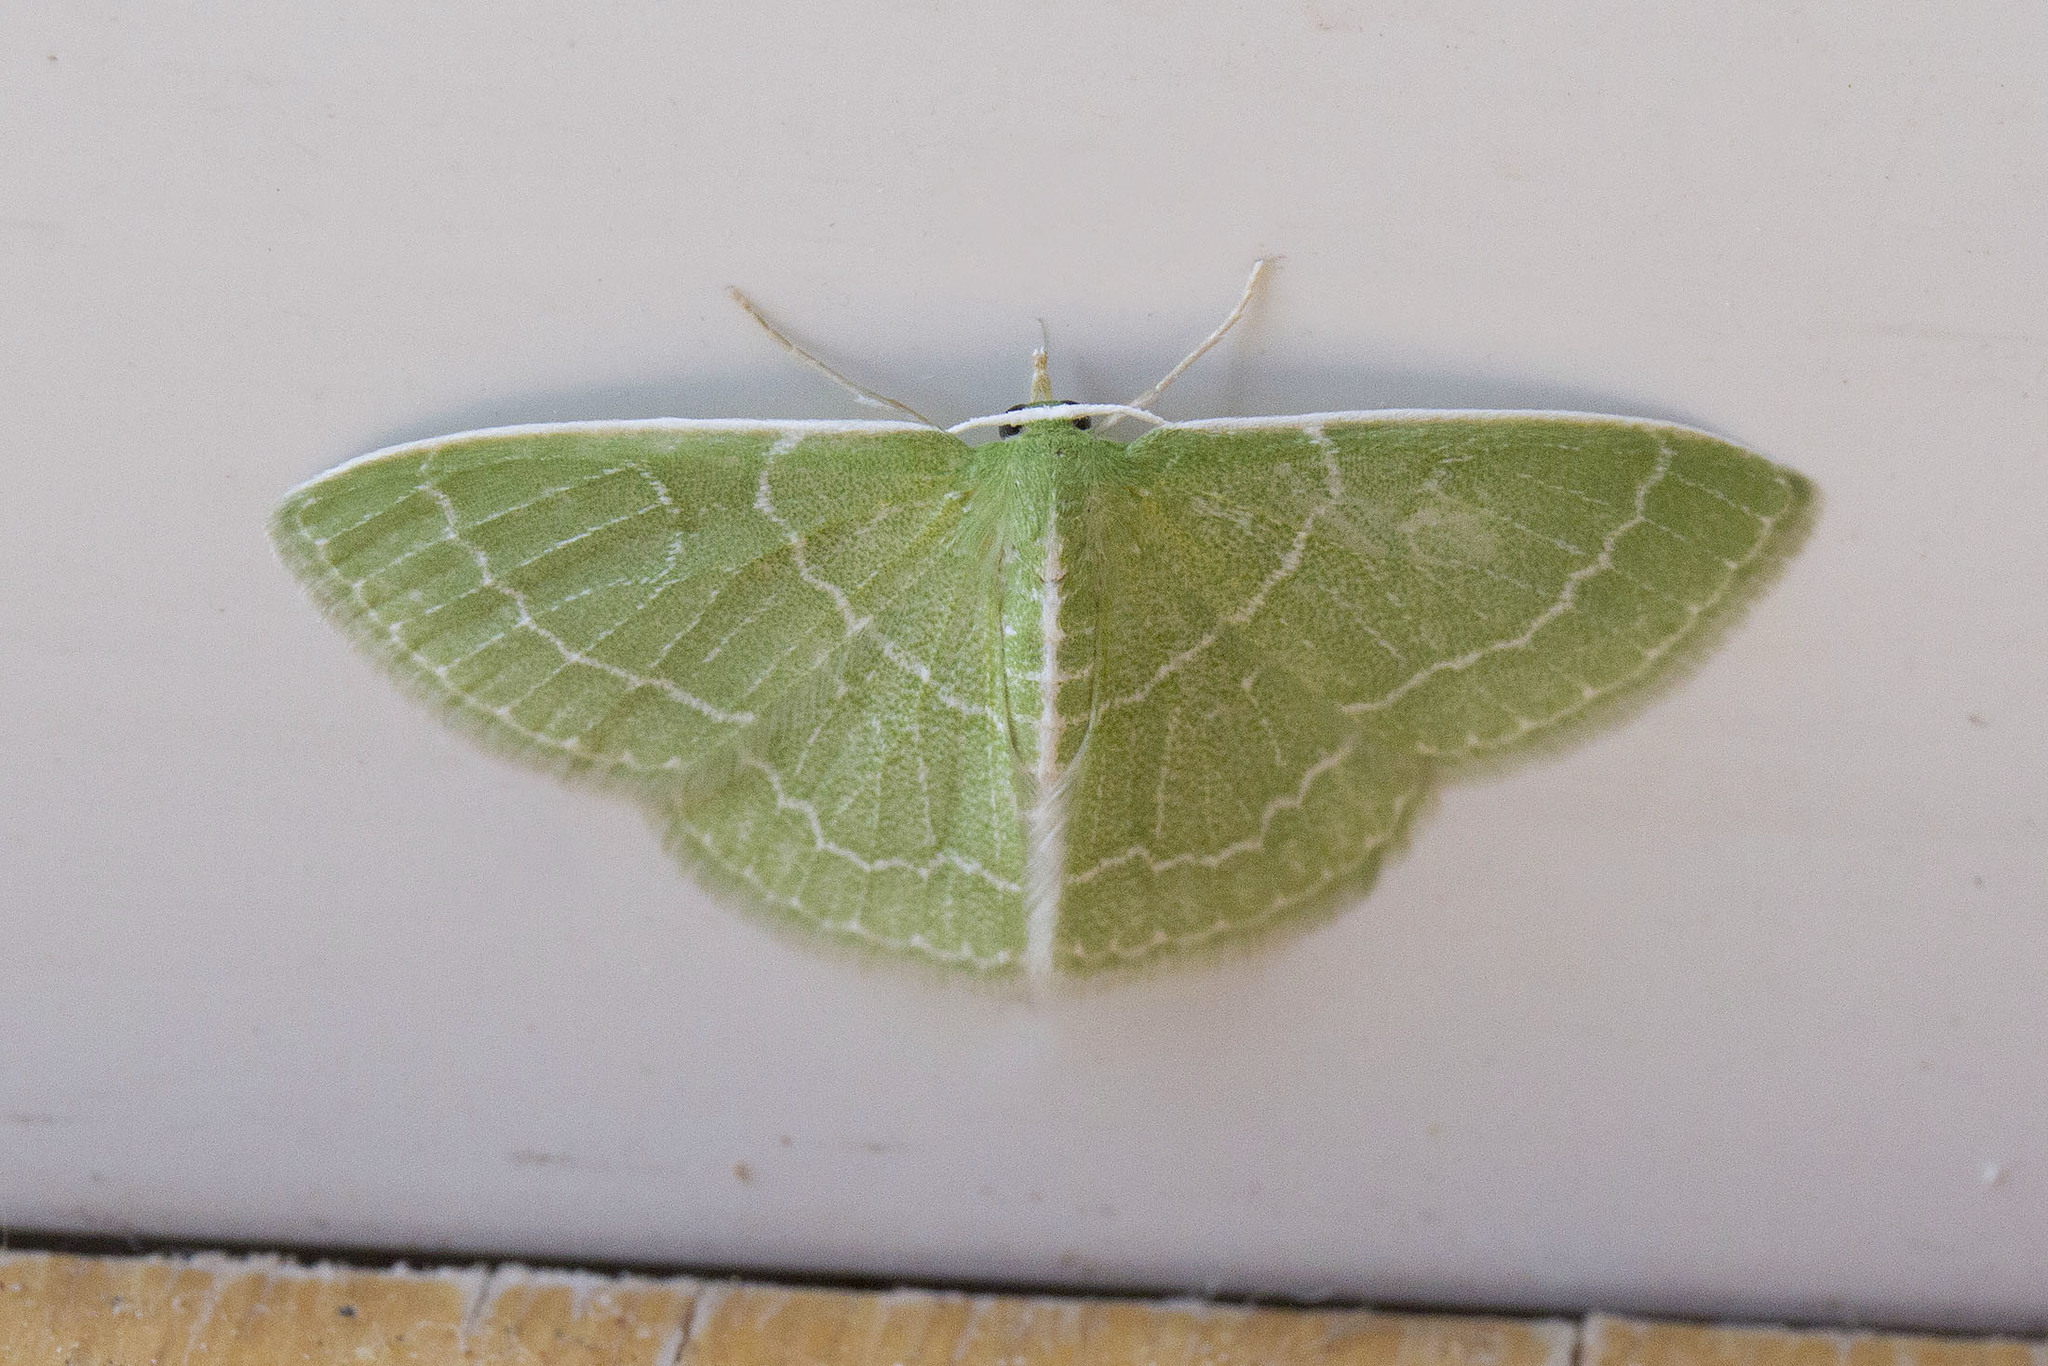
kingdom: Animalia
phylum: Arthropoda
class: Insecta
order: Lepidoptera
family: Geometridae
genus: Synchlora
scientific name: Synchlora aerata
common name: Wavy-lined emerald
